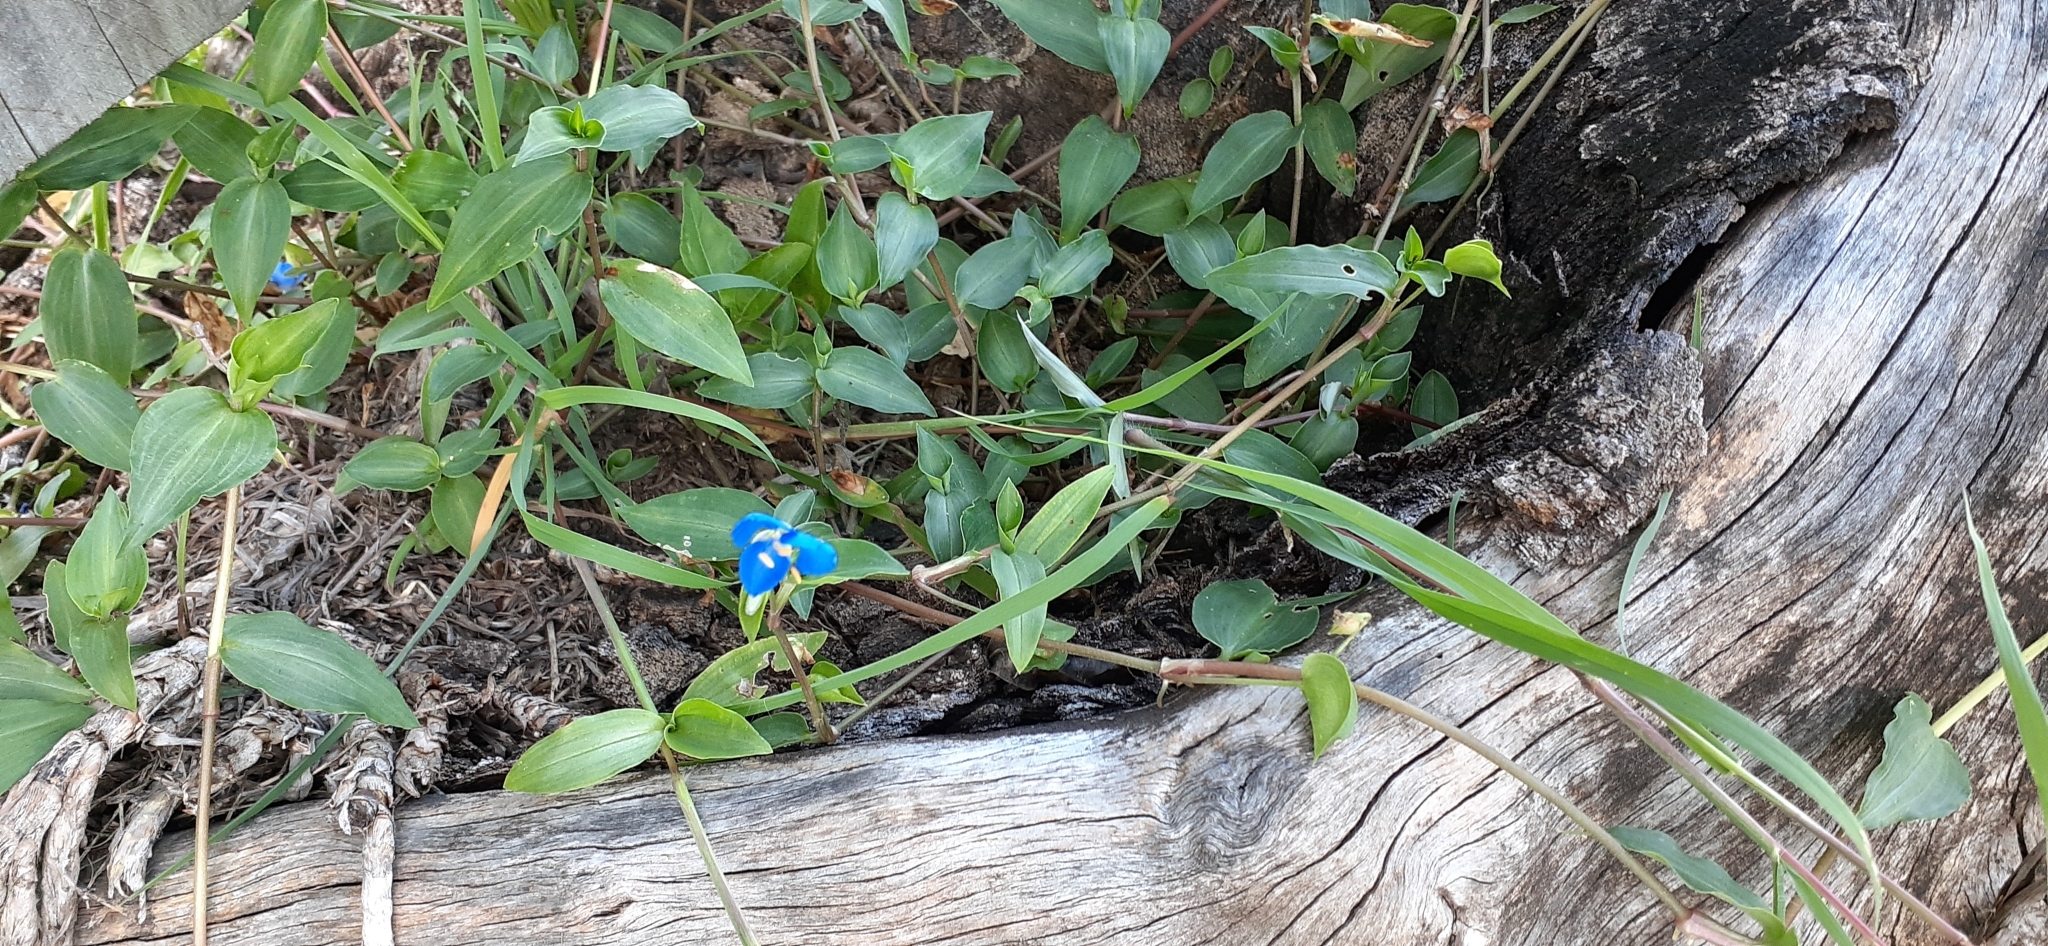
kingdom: Plantae
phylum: Tracheophyta
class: Liliopsida
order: Commelinales
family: Commelinaceae
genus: Commelina
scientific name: Commelina cyanea
